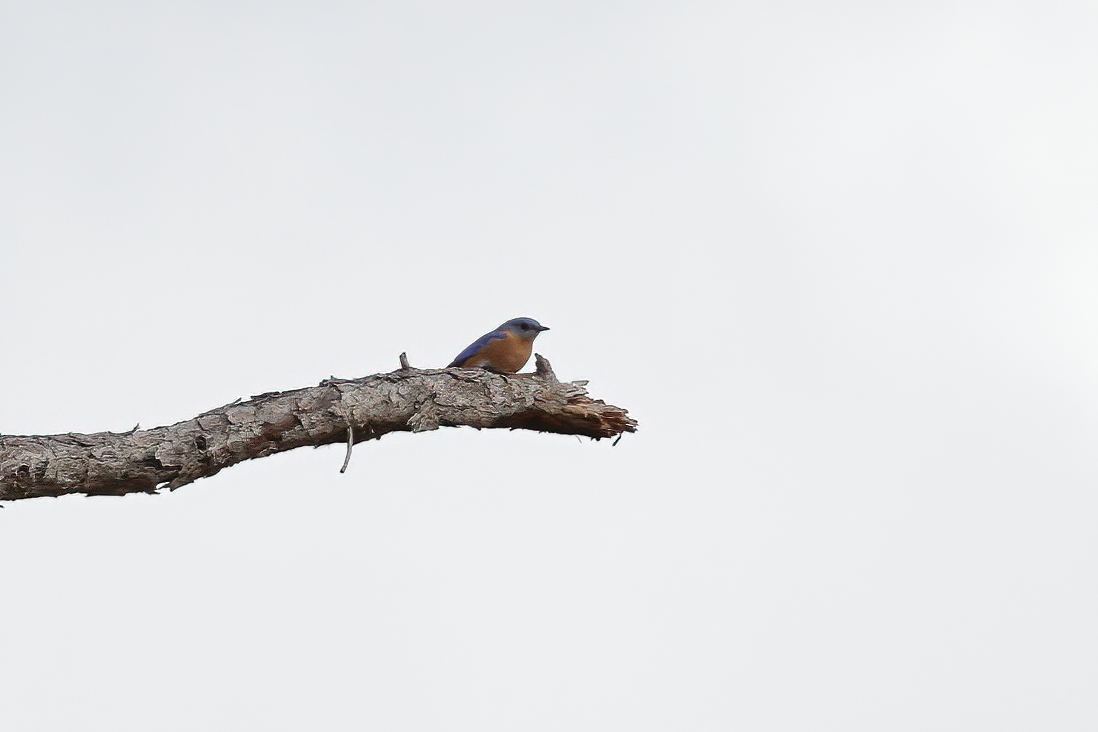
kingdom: Animalia
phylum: Chordata
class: Aves
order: Passeriformes
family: Turdidae
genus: Sialia
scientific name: Sialia sialis
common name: Eastern bluebird
